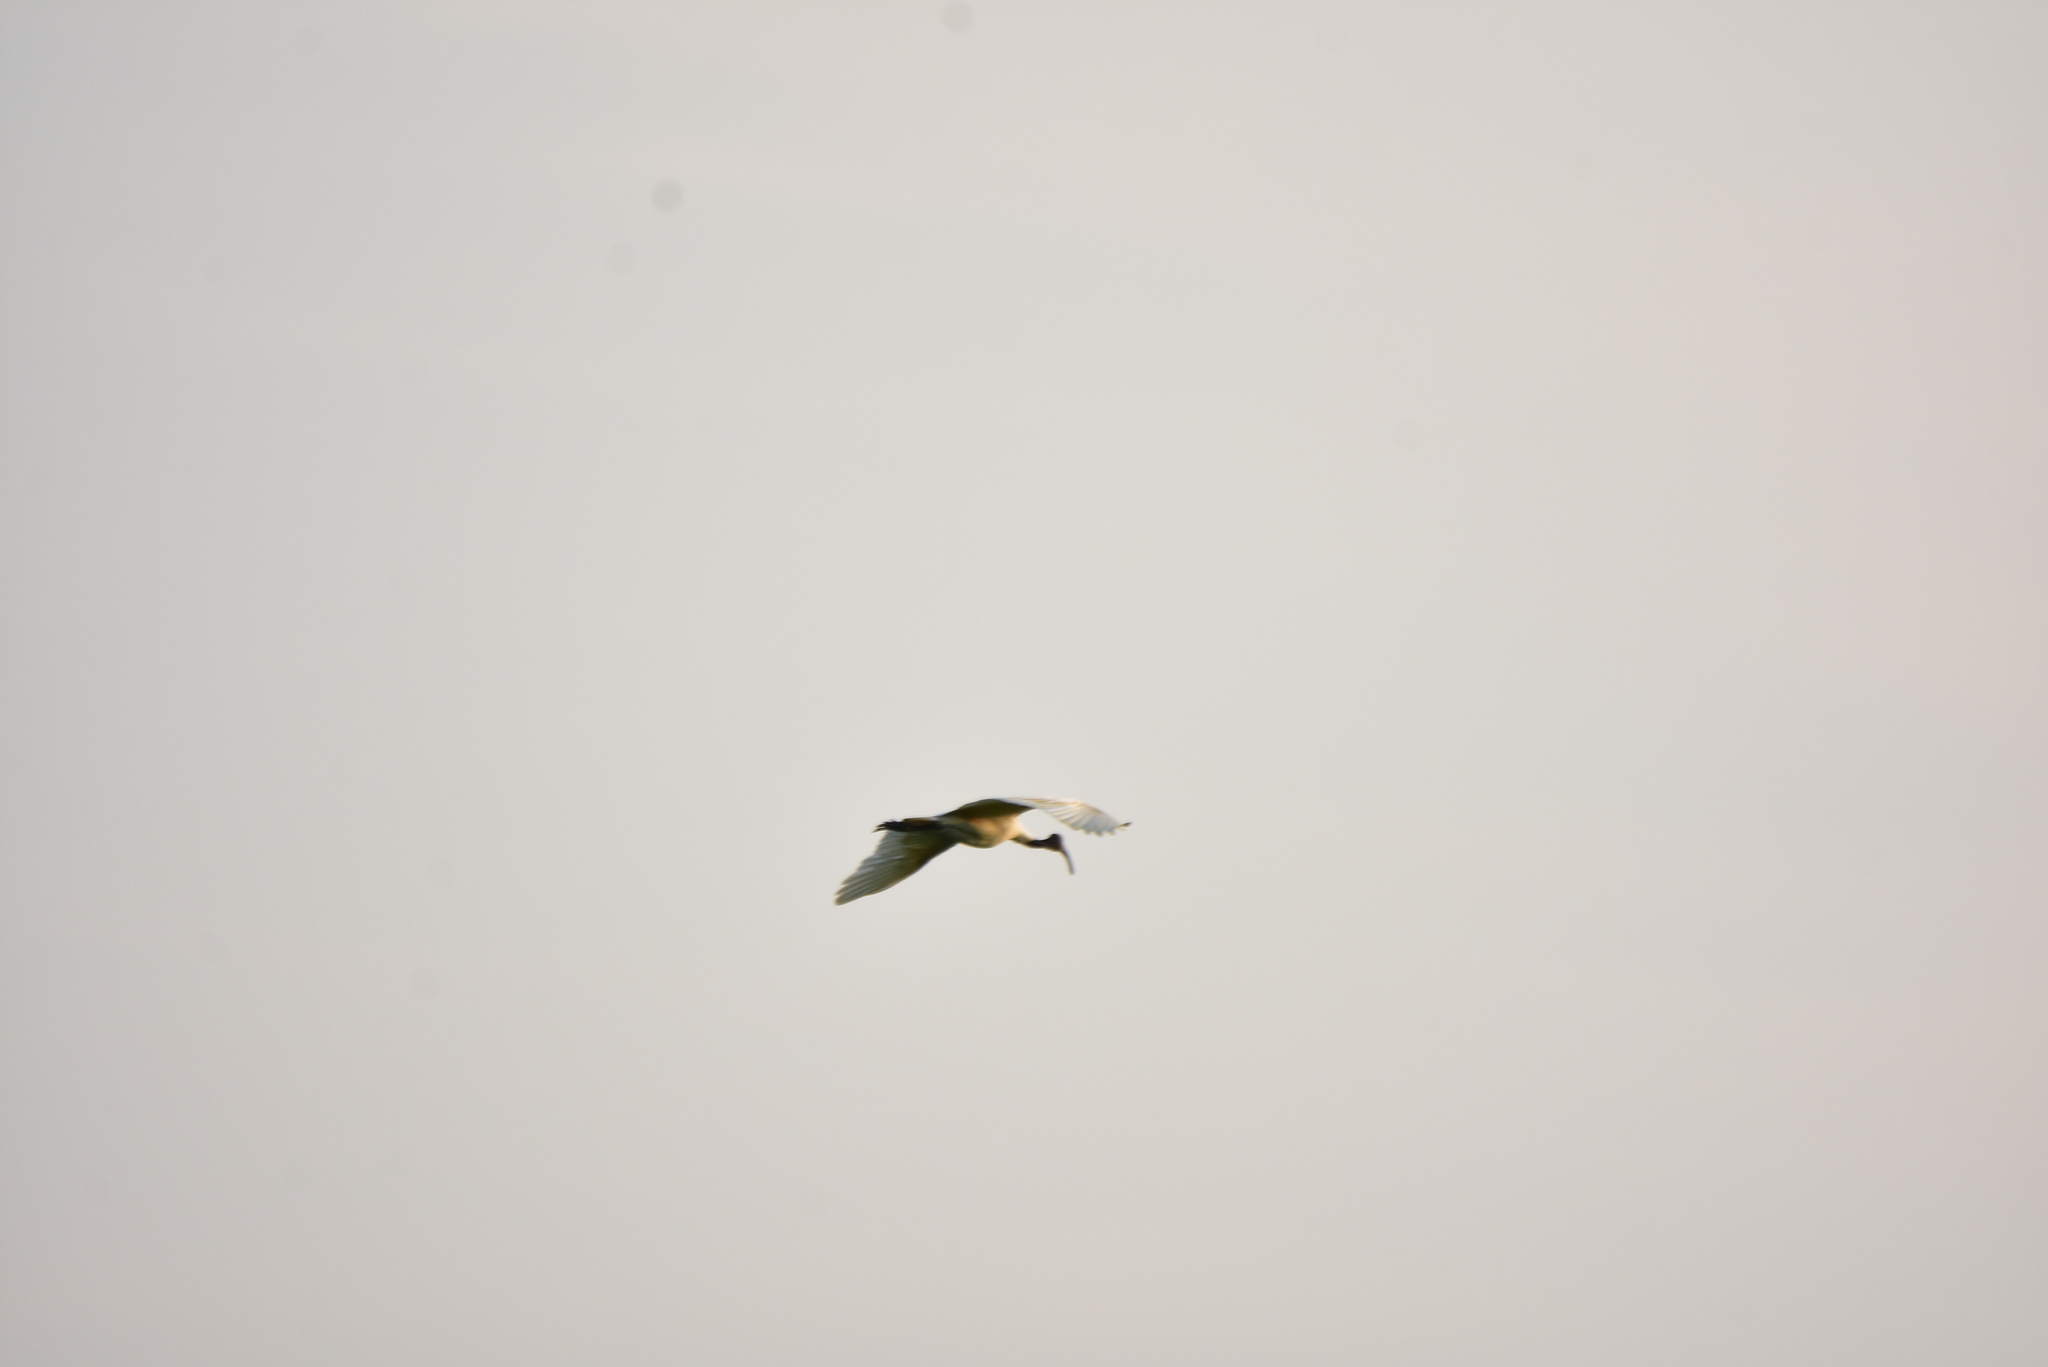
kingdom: Animalia
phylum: Chordata
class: Aves
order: Pelecaniformes
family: Threskiornithidae
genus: Threskiornis
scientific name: Threskiornis melanocephalus
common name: Black-headed ibis
